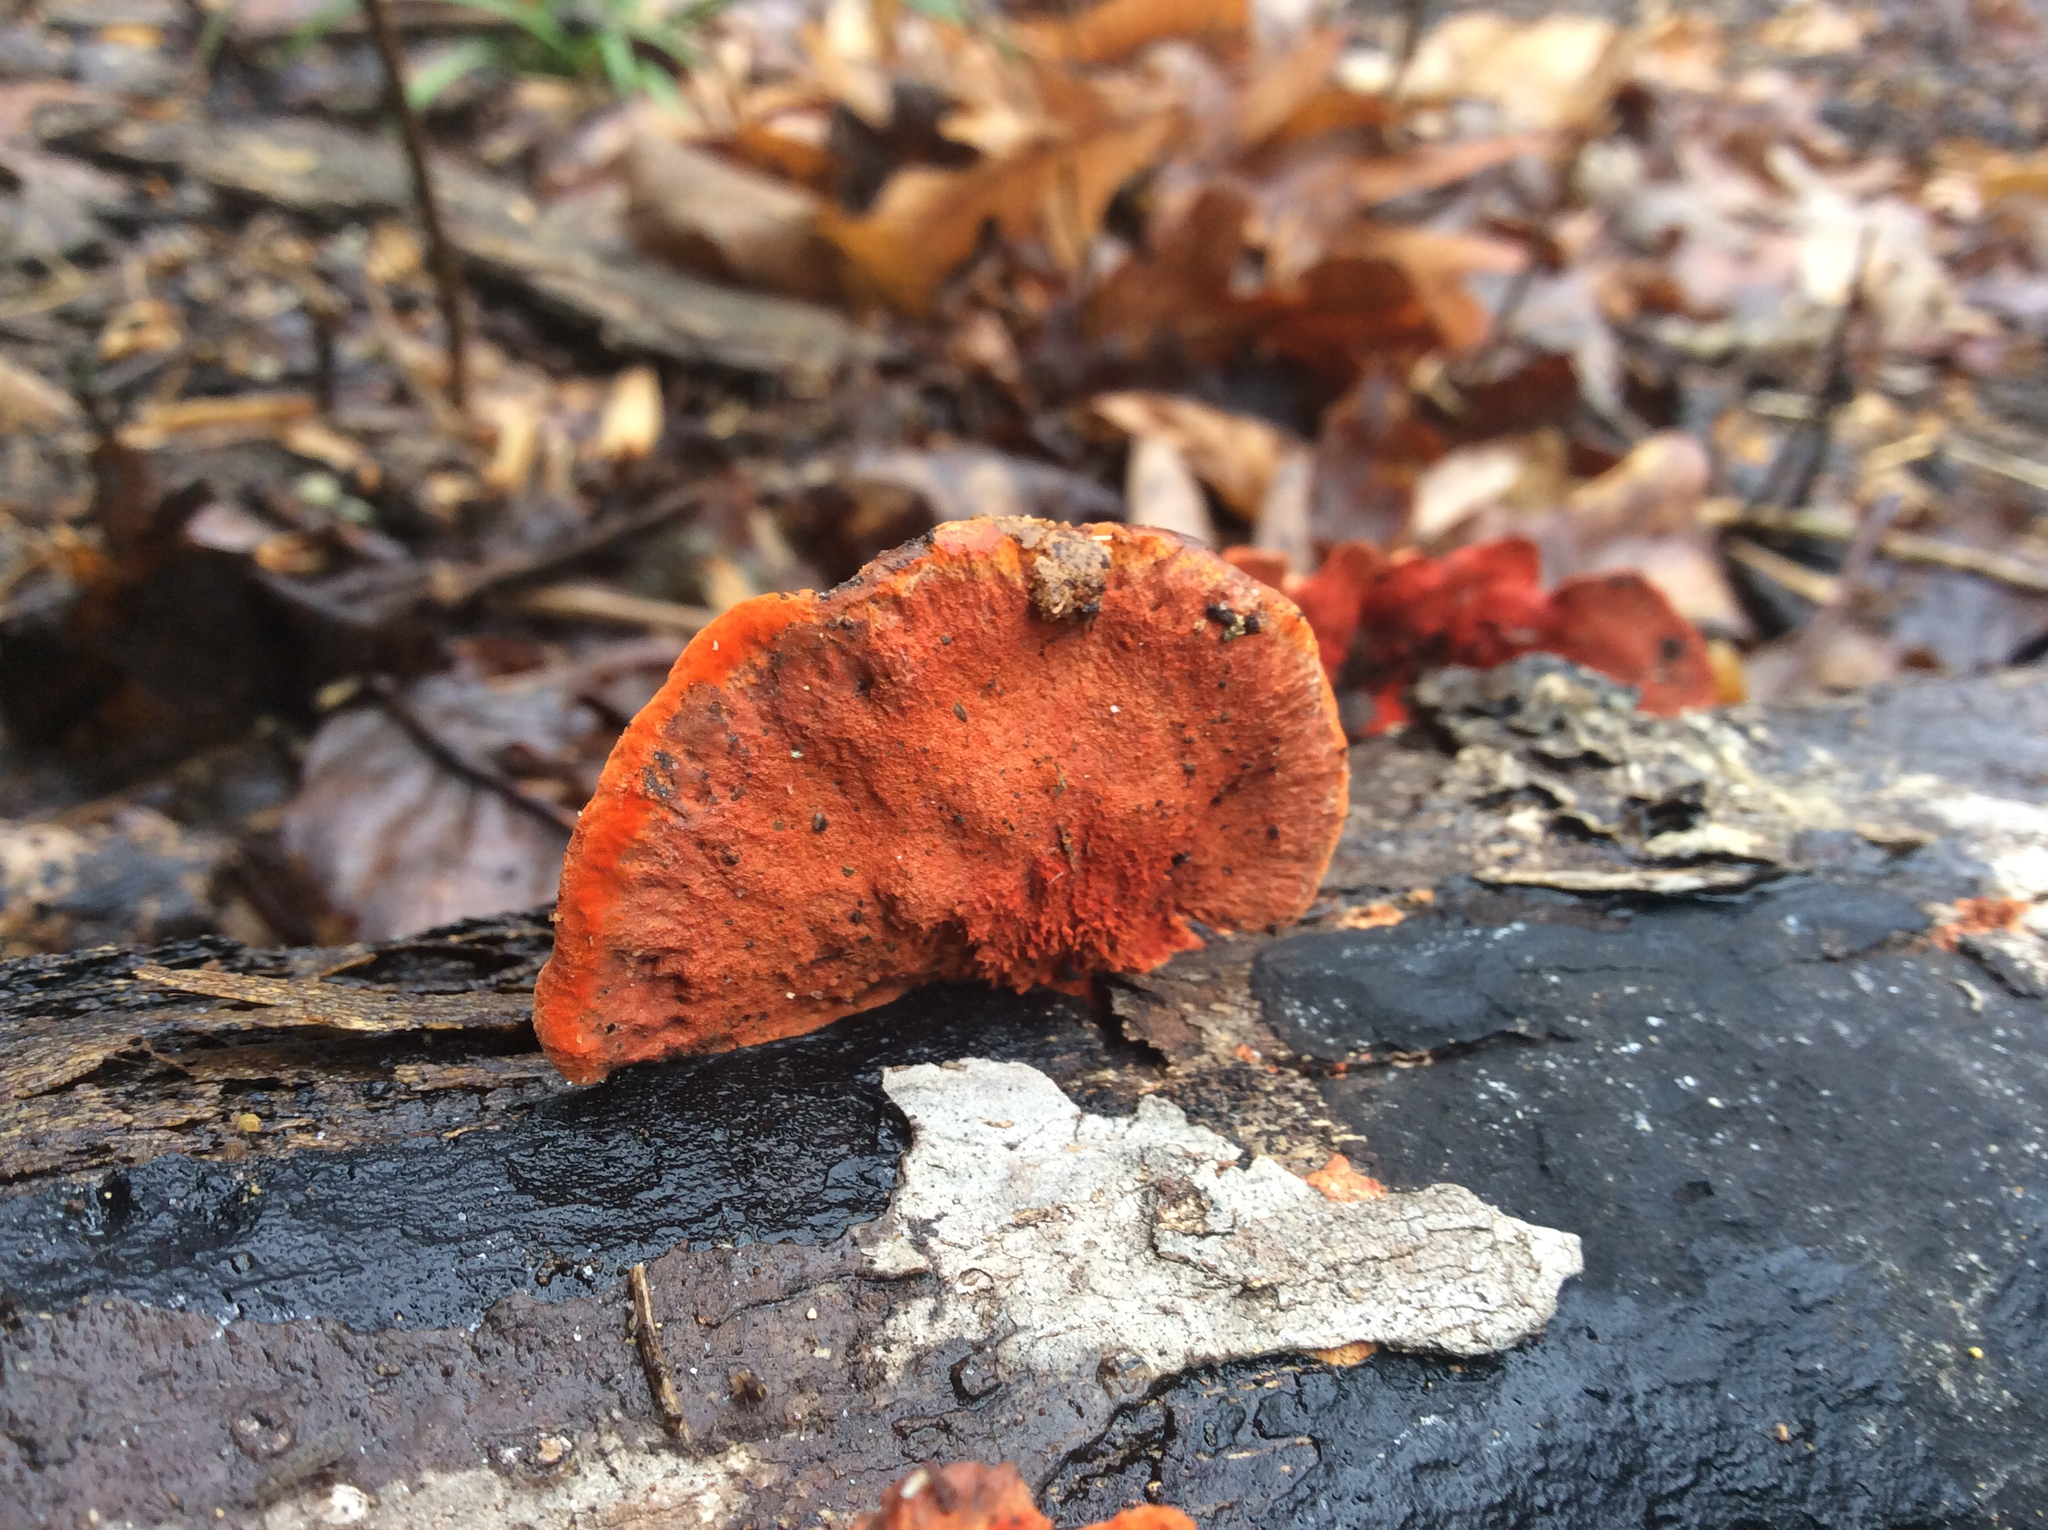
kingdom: Fungi
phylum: Basidiomycota
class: Agaricomycetes
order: Polyporales
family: Polyporaceae
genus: Trametes
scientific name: Trametes cinnabarina
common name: Northern cinnabar polypore
